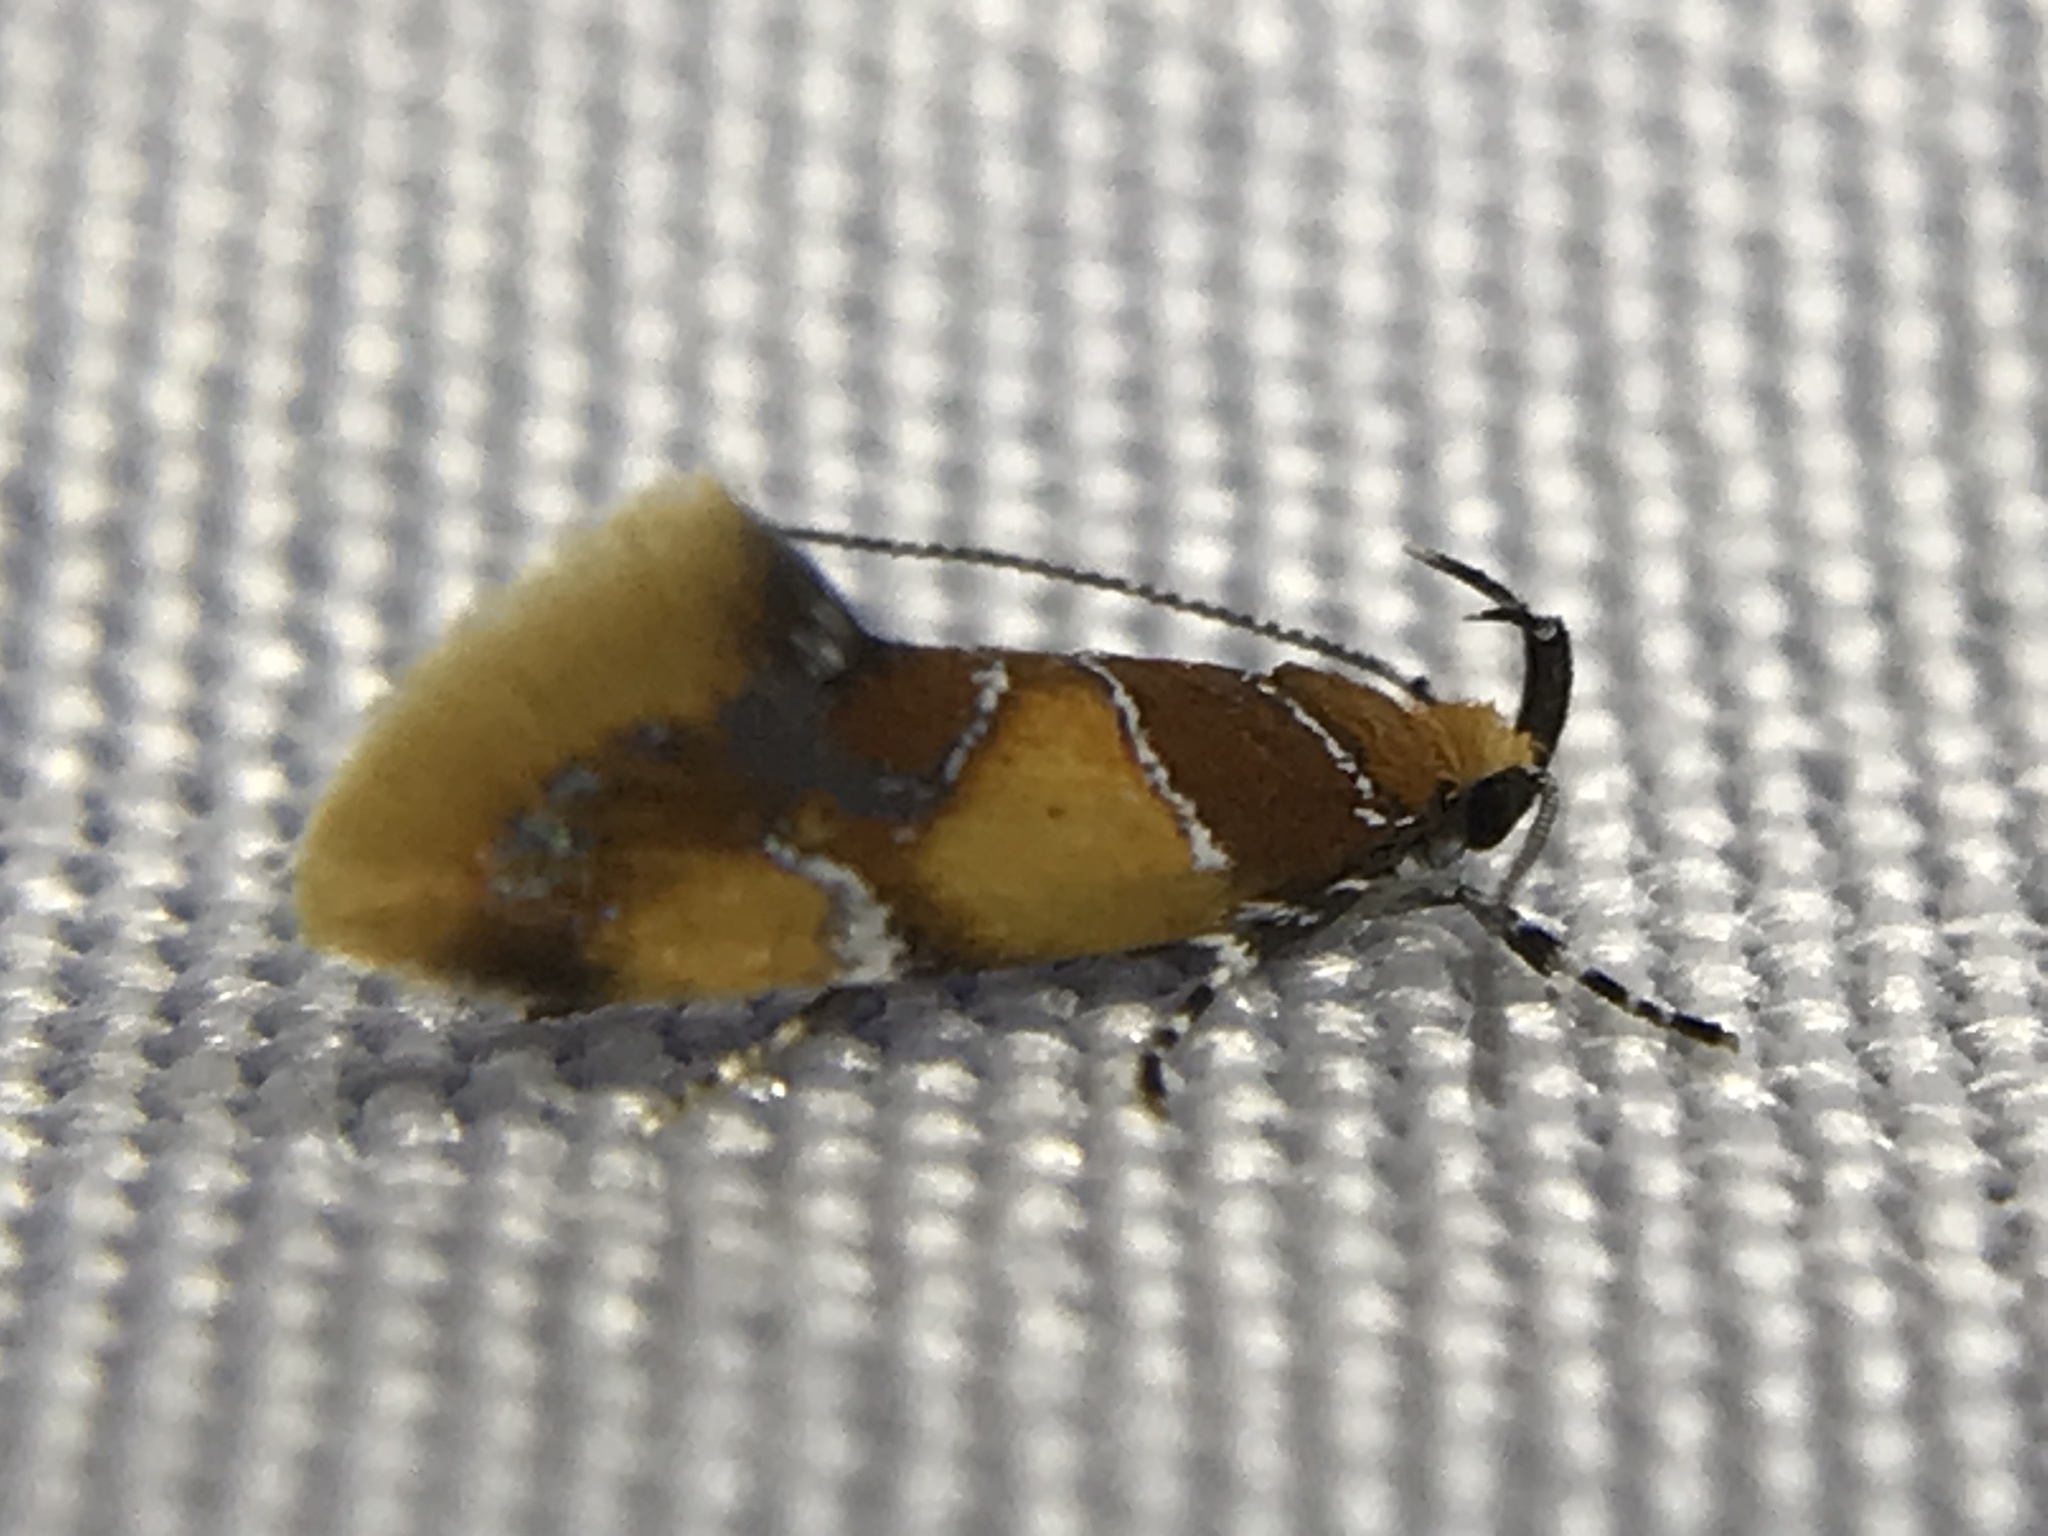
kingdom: Animalia
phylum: Arthropoda
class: Insecta
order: Lepidoptera
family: Oecophoridae
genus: Callima
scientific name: Callima argenticinctella
